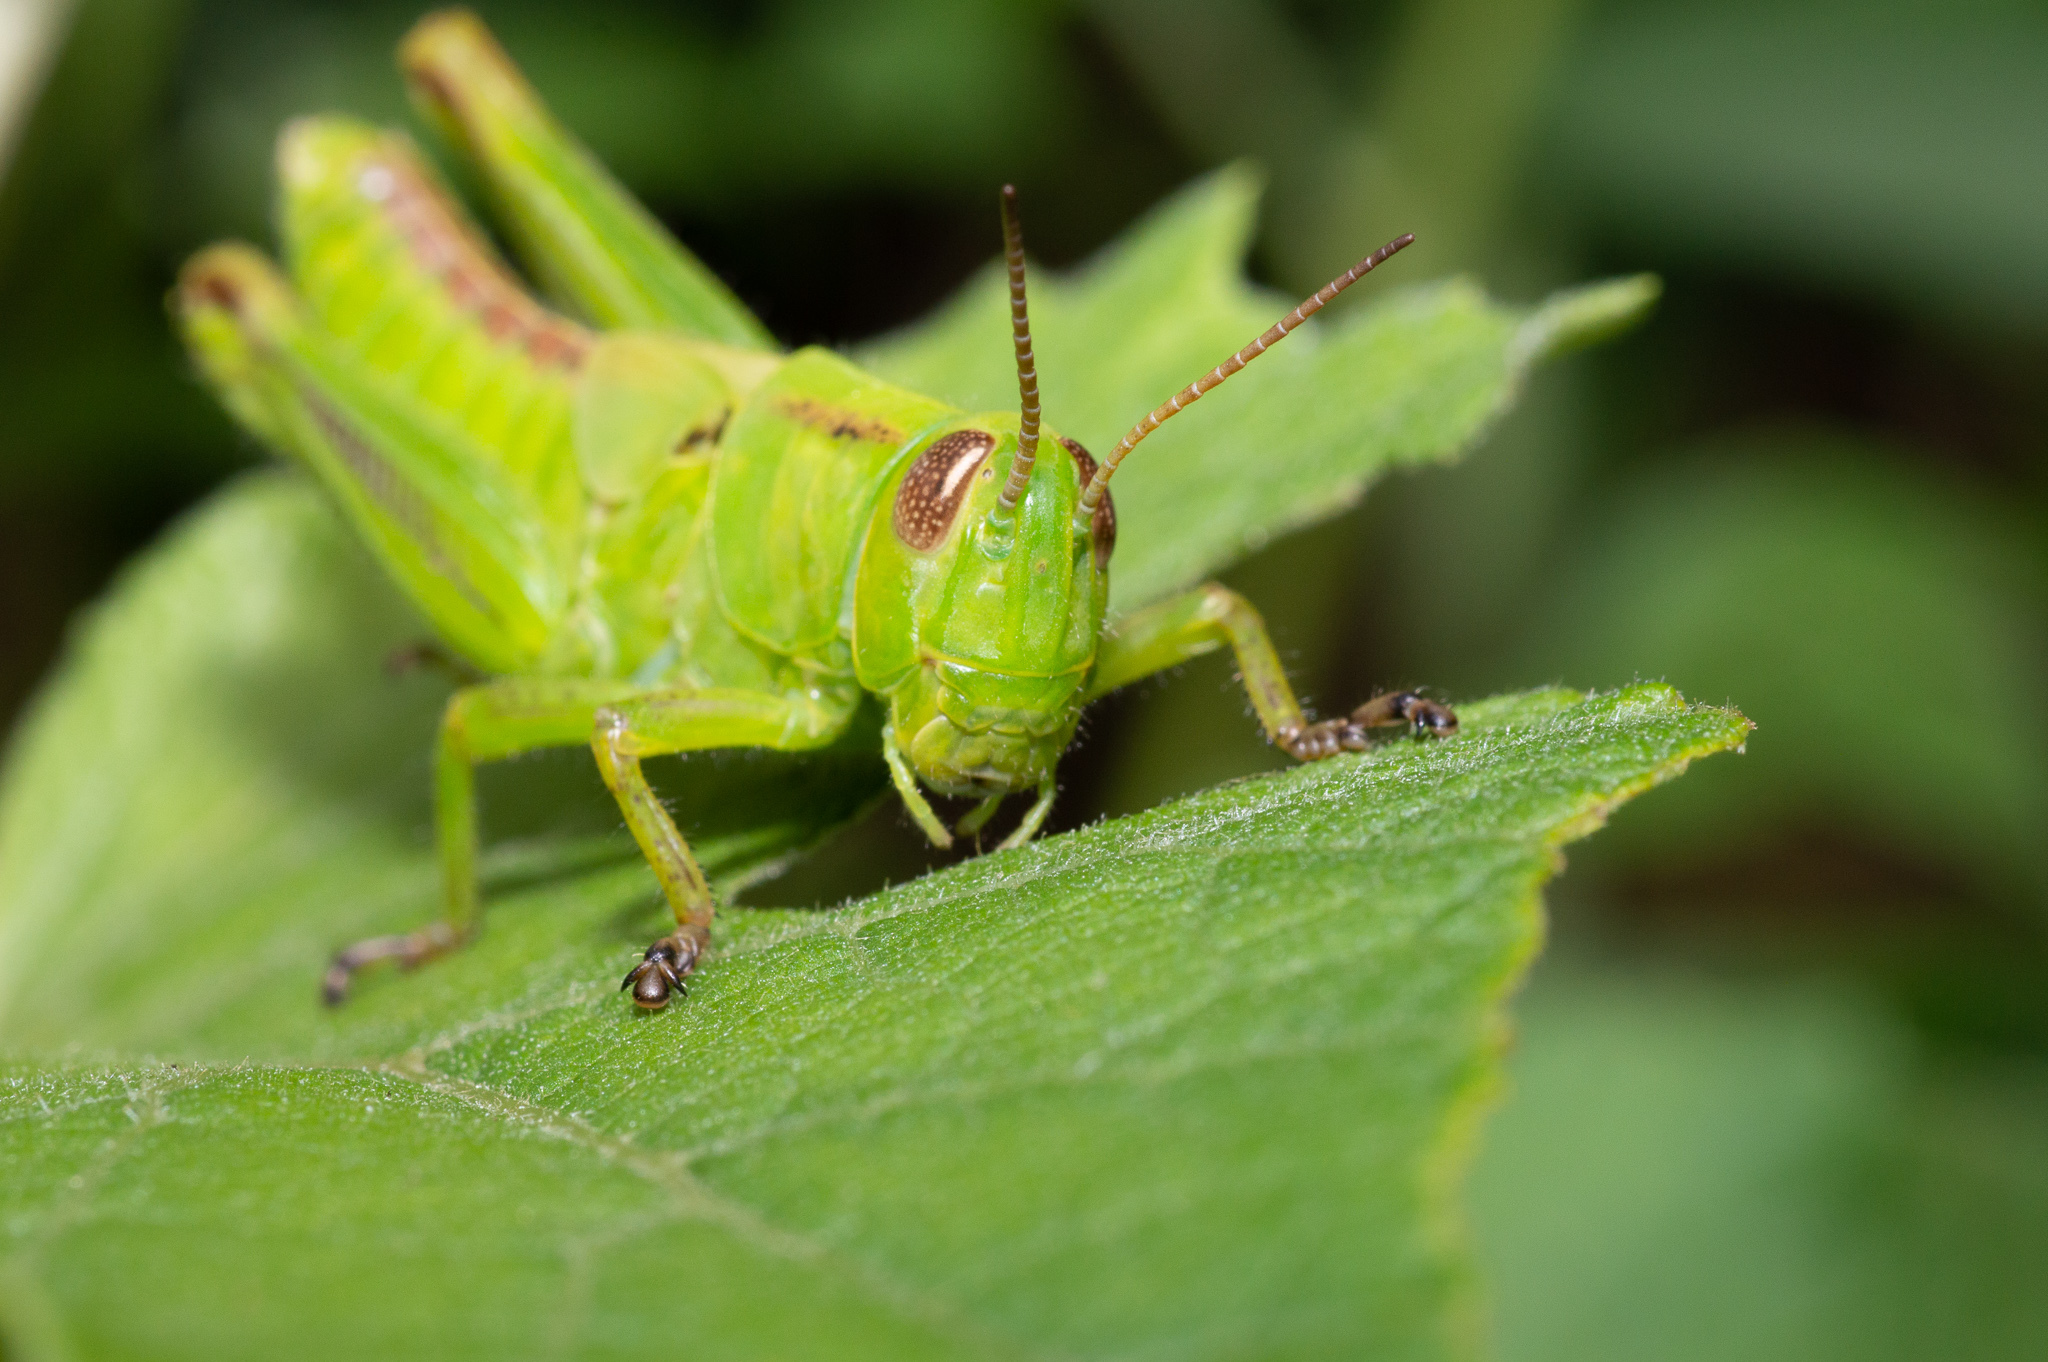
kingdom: Animalia
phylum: Arthropoda
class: Insecta
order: Orthoptera
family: Acrididae
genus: Melanoplus
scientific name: Melanoplus
